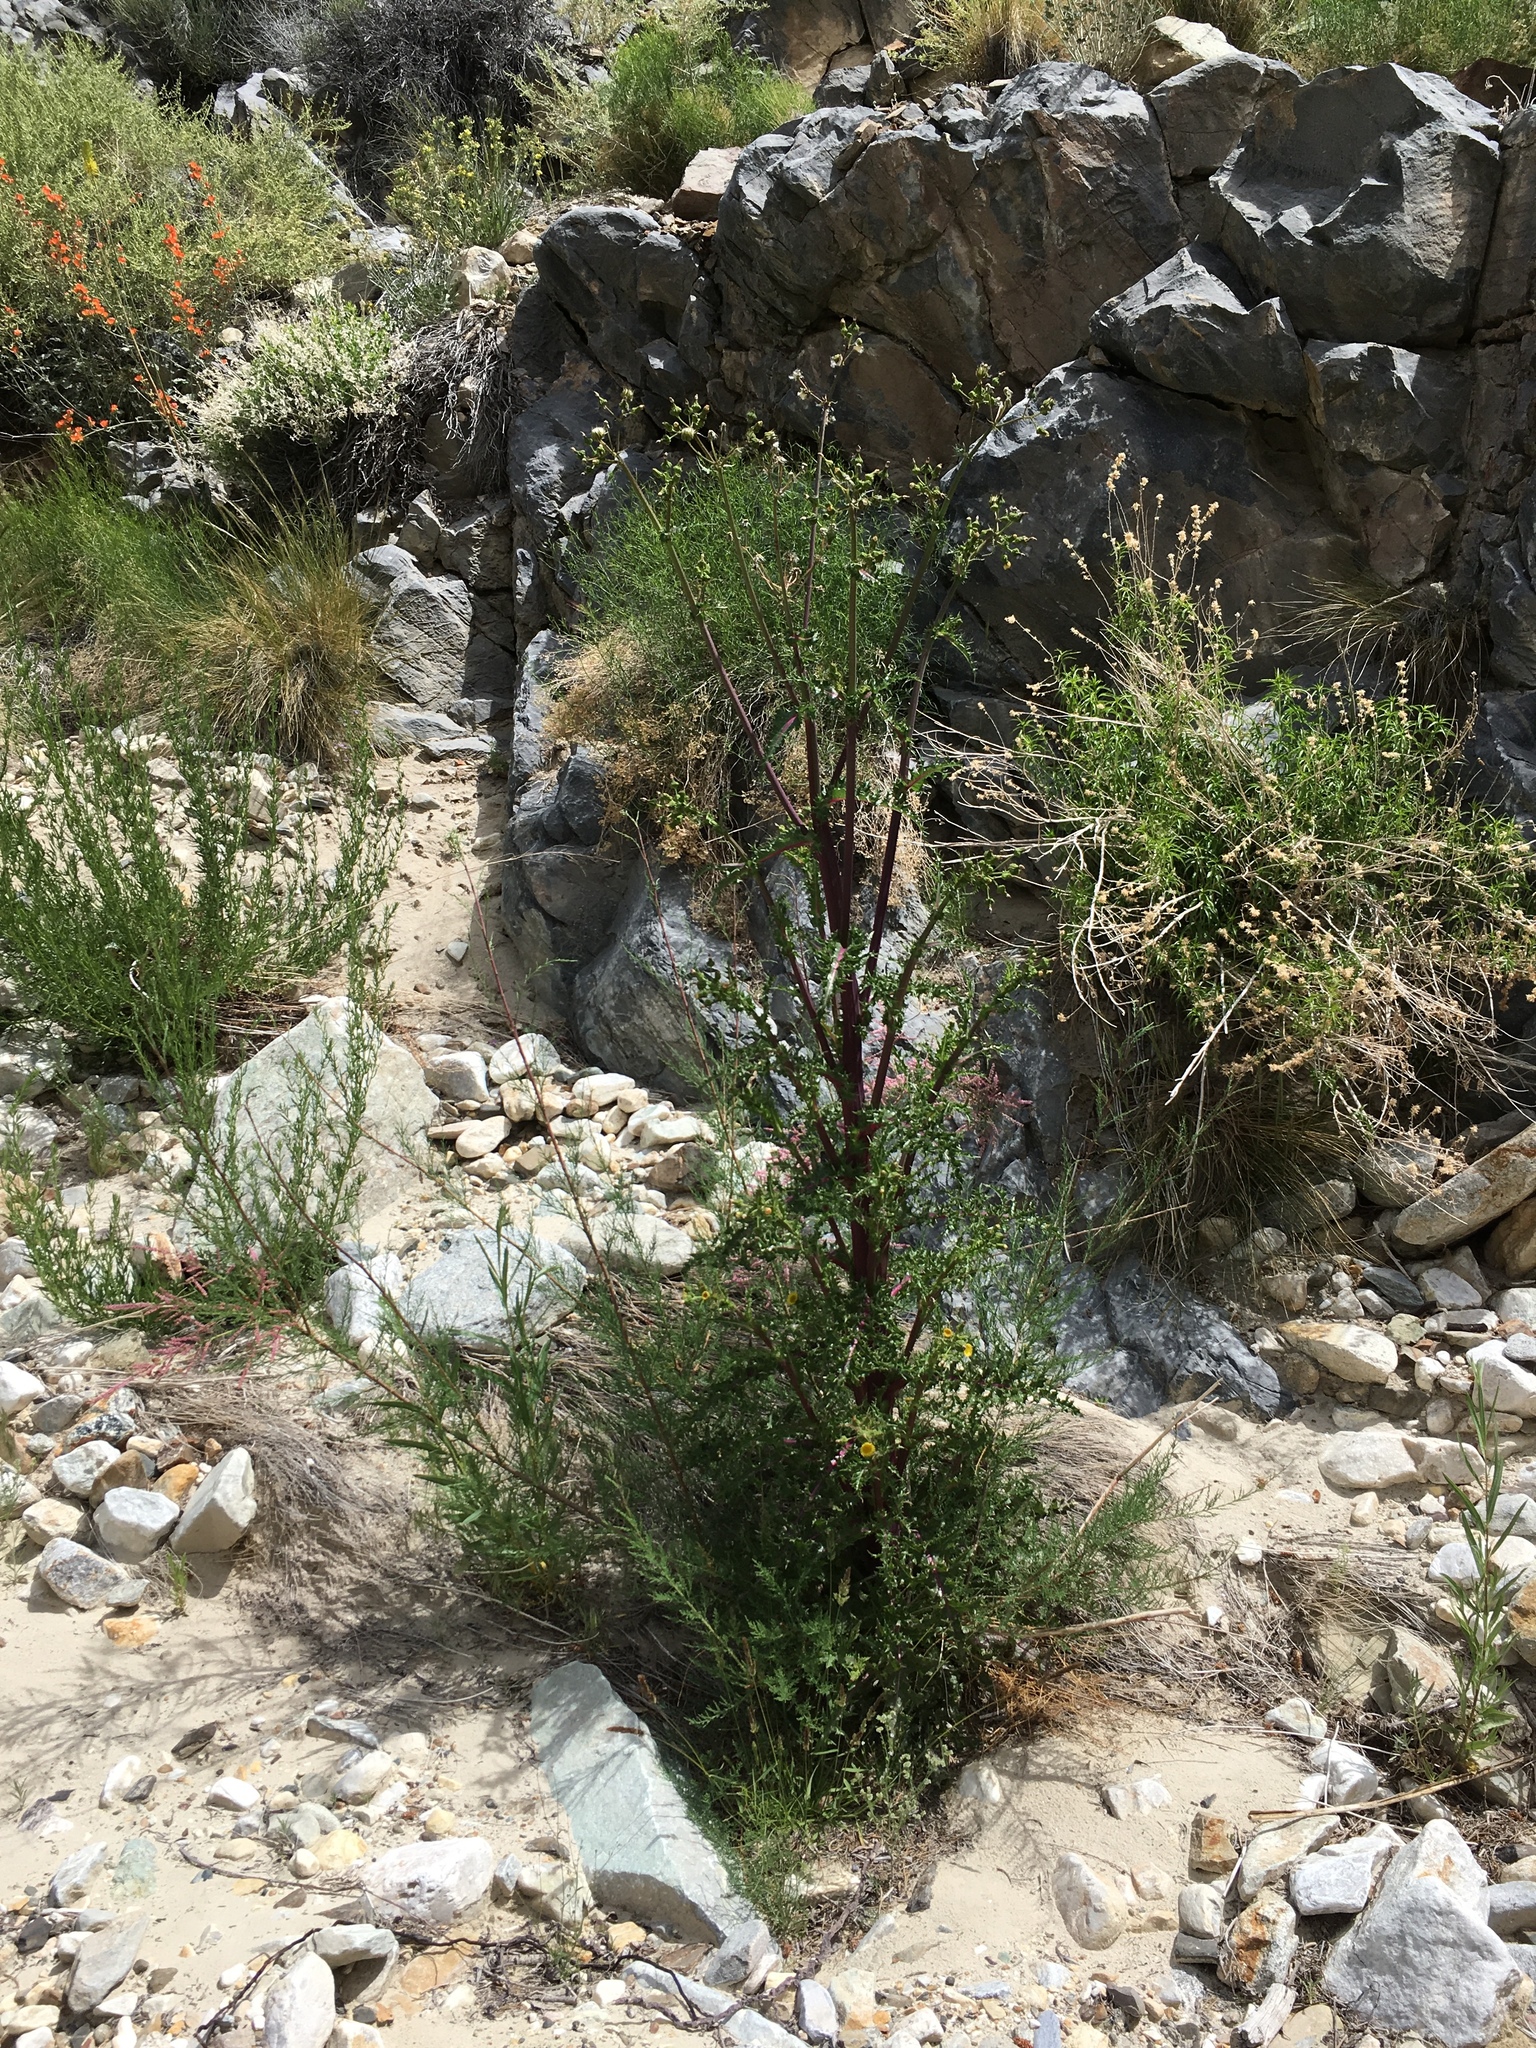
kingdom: Plantae
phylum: Tracheophyta
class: Magnoliopsida
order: Asterales
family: Asteraceae
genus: Sonchus
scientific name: Sonchus asper
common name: Prickly sow-thistle
